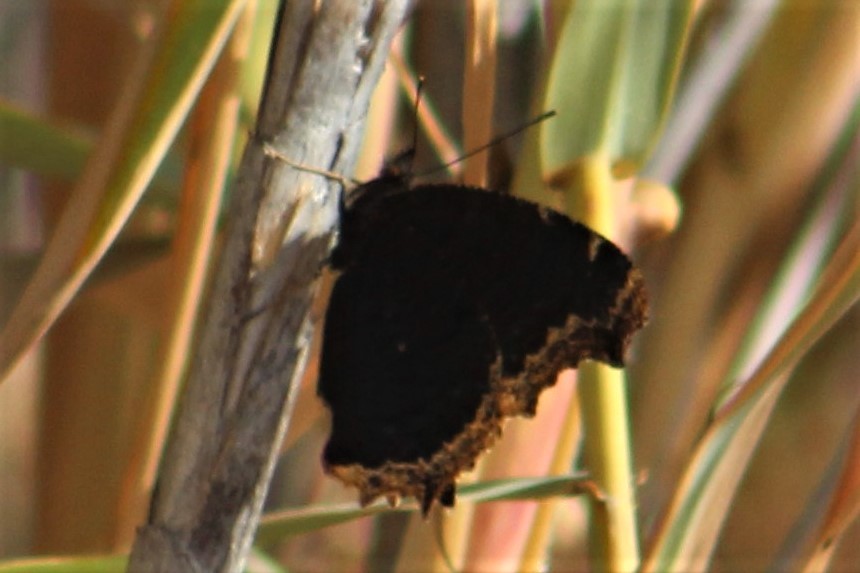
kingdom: Animalia
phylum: Arthropoda
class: Insecta
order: Lepidoptera
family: Nymphalidae
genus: Nymphalis
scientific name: Nymphalis antiopa
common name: Camberwell beauty
